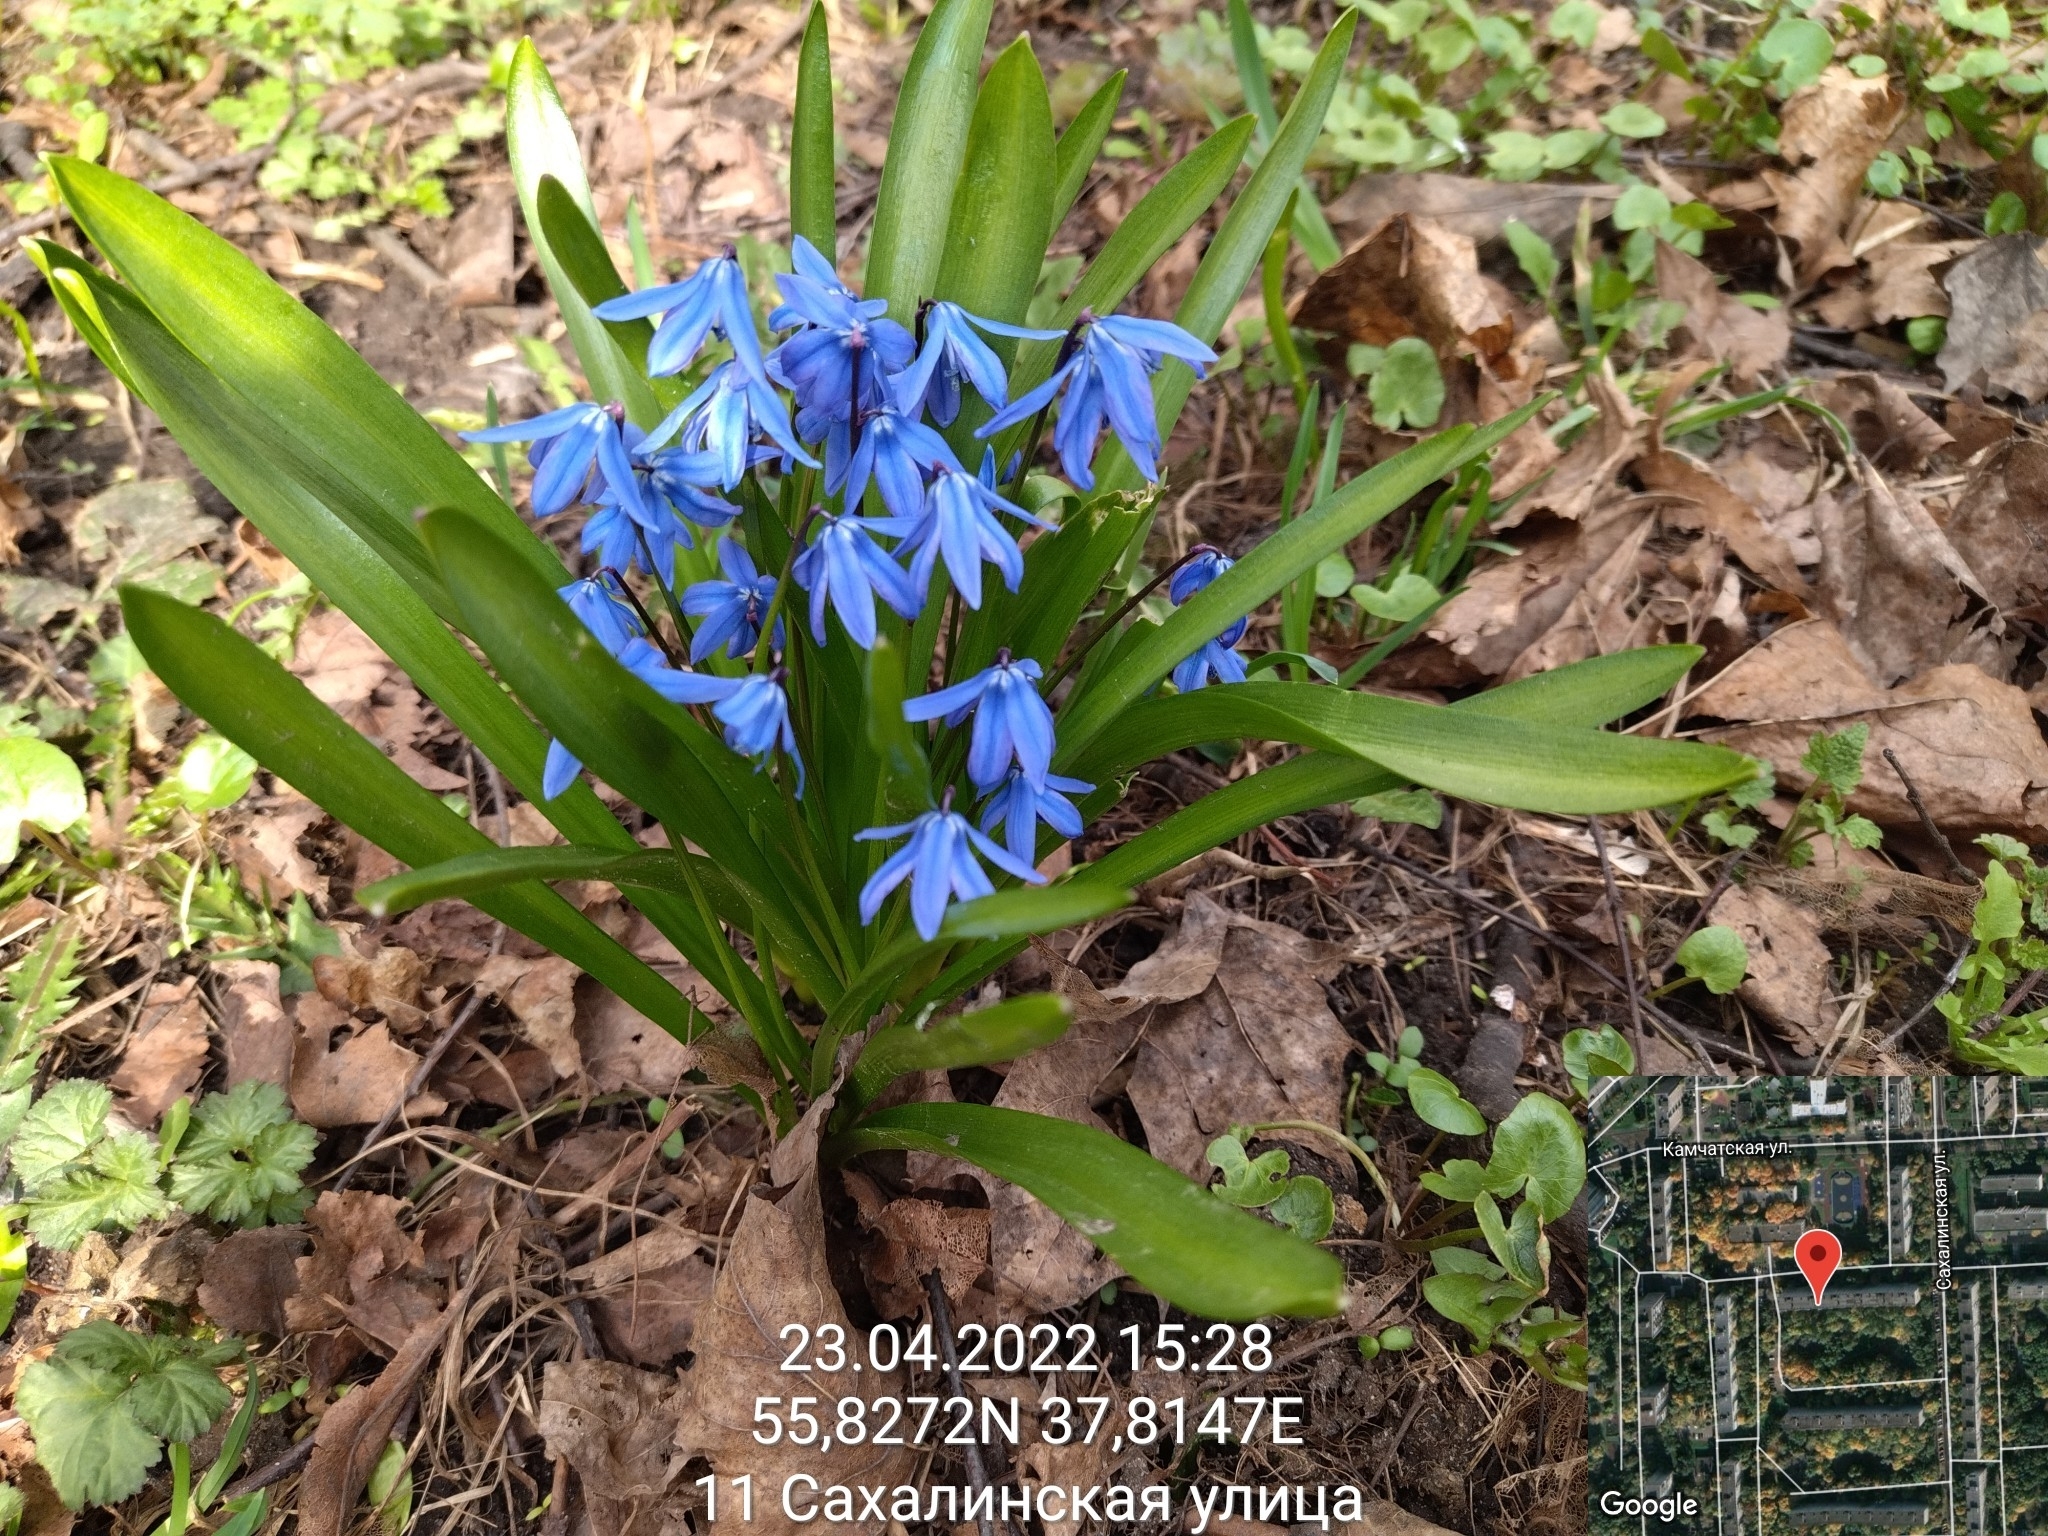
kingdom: Plantae
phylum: Tracheophyta
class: Liliopsida
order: Asparagales
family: Asparagaceae
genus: Scilla
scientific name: Scilla siberica
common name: Siberian squill
